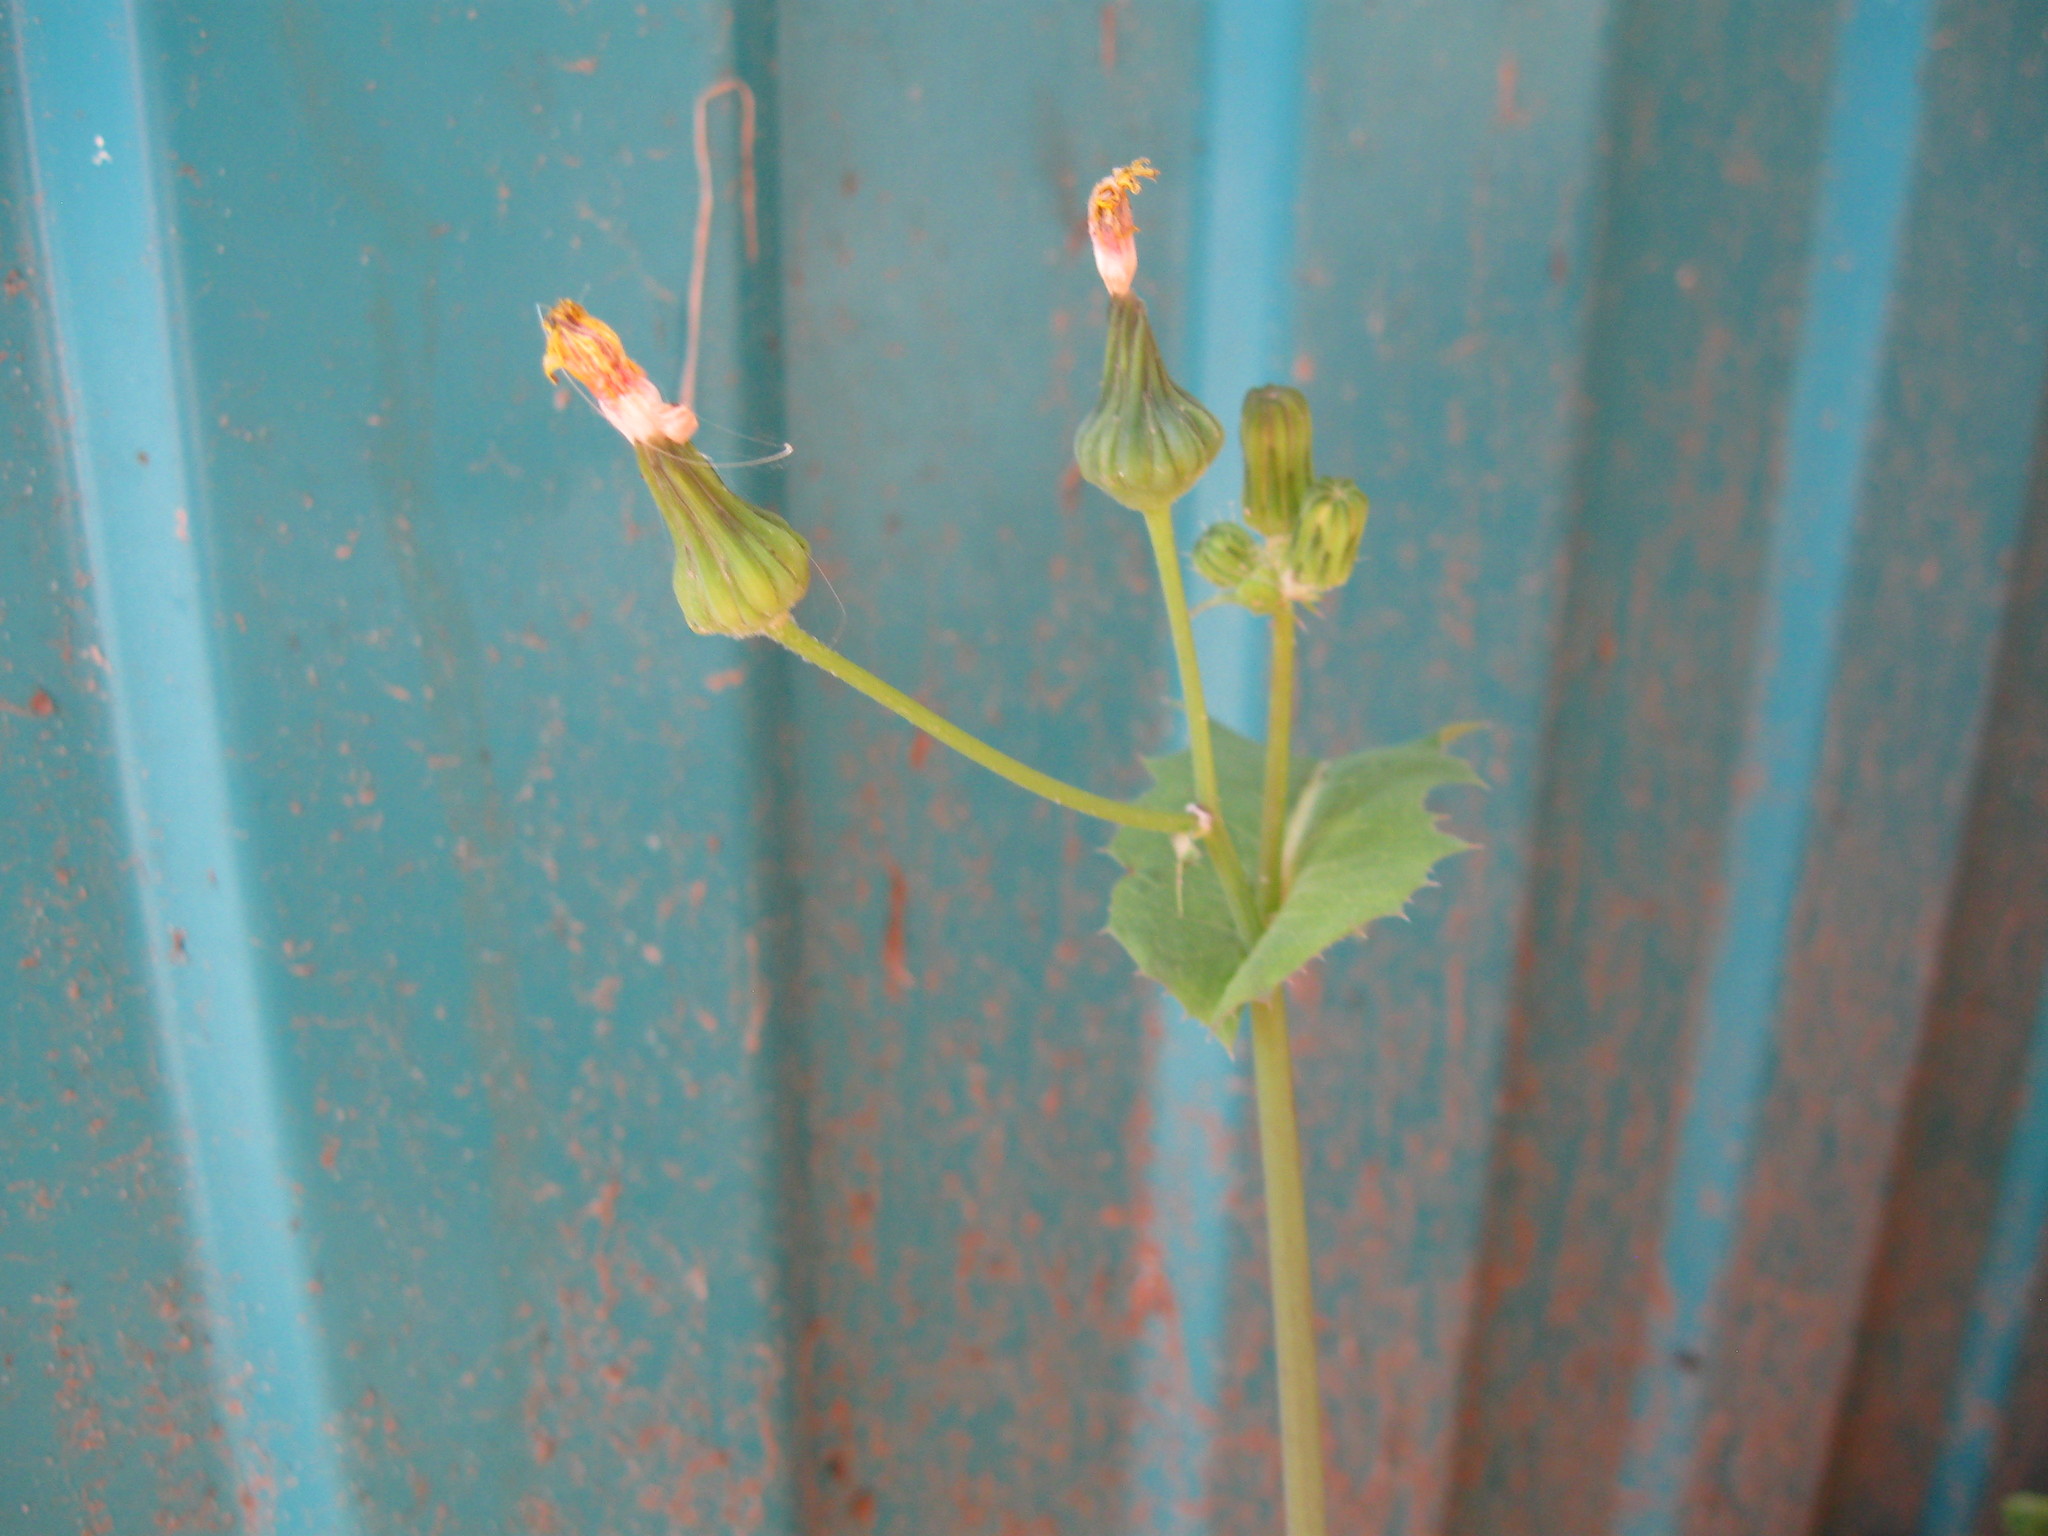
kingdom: Plantae
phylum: Tracheophyta
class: Magnoliopsida
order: Asterales
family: Asteraceae
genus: Sonchus
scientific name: Sonchus oleraceus
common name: Common sowthistle
